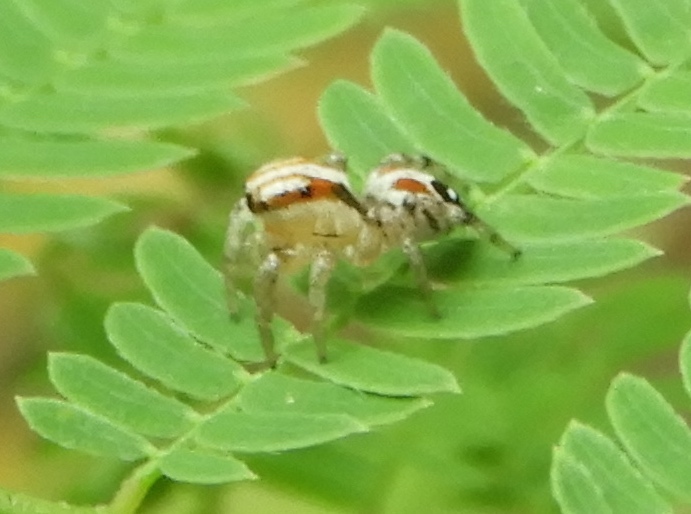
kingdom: Animalia
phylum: Arthropoda
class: Arachnida
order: Araneae
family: Salticidae
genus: Nycerella
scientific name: Nycerella delecta
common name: Jumping spiders
